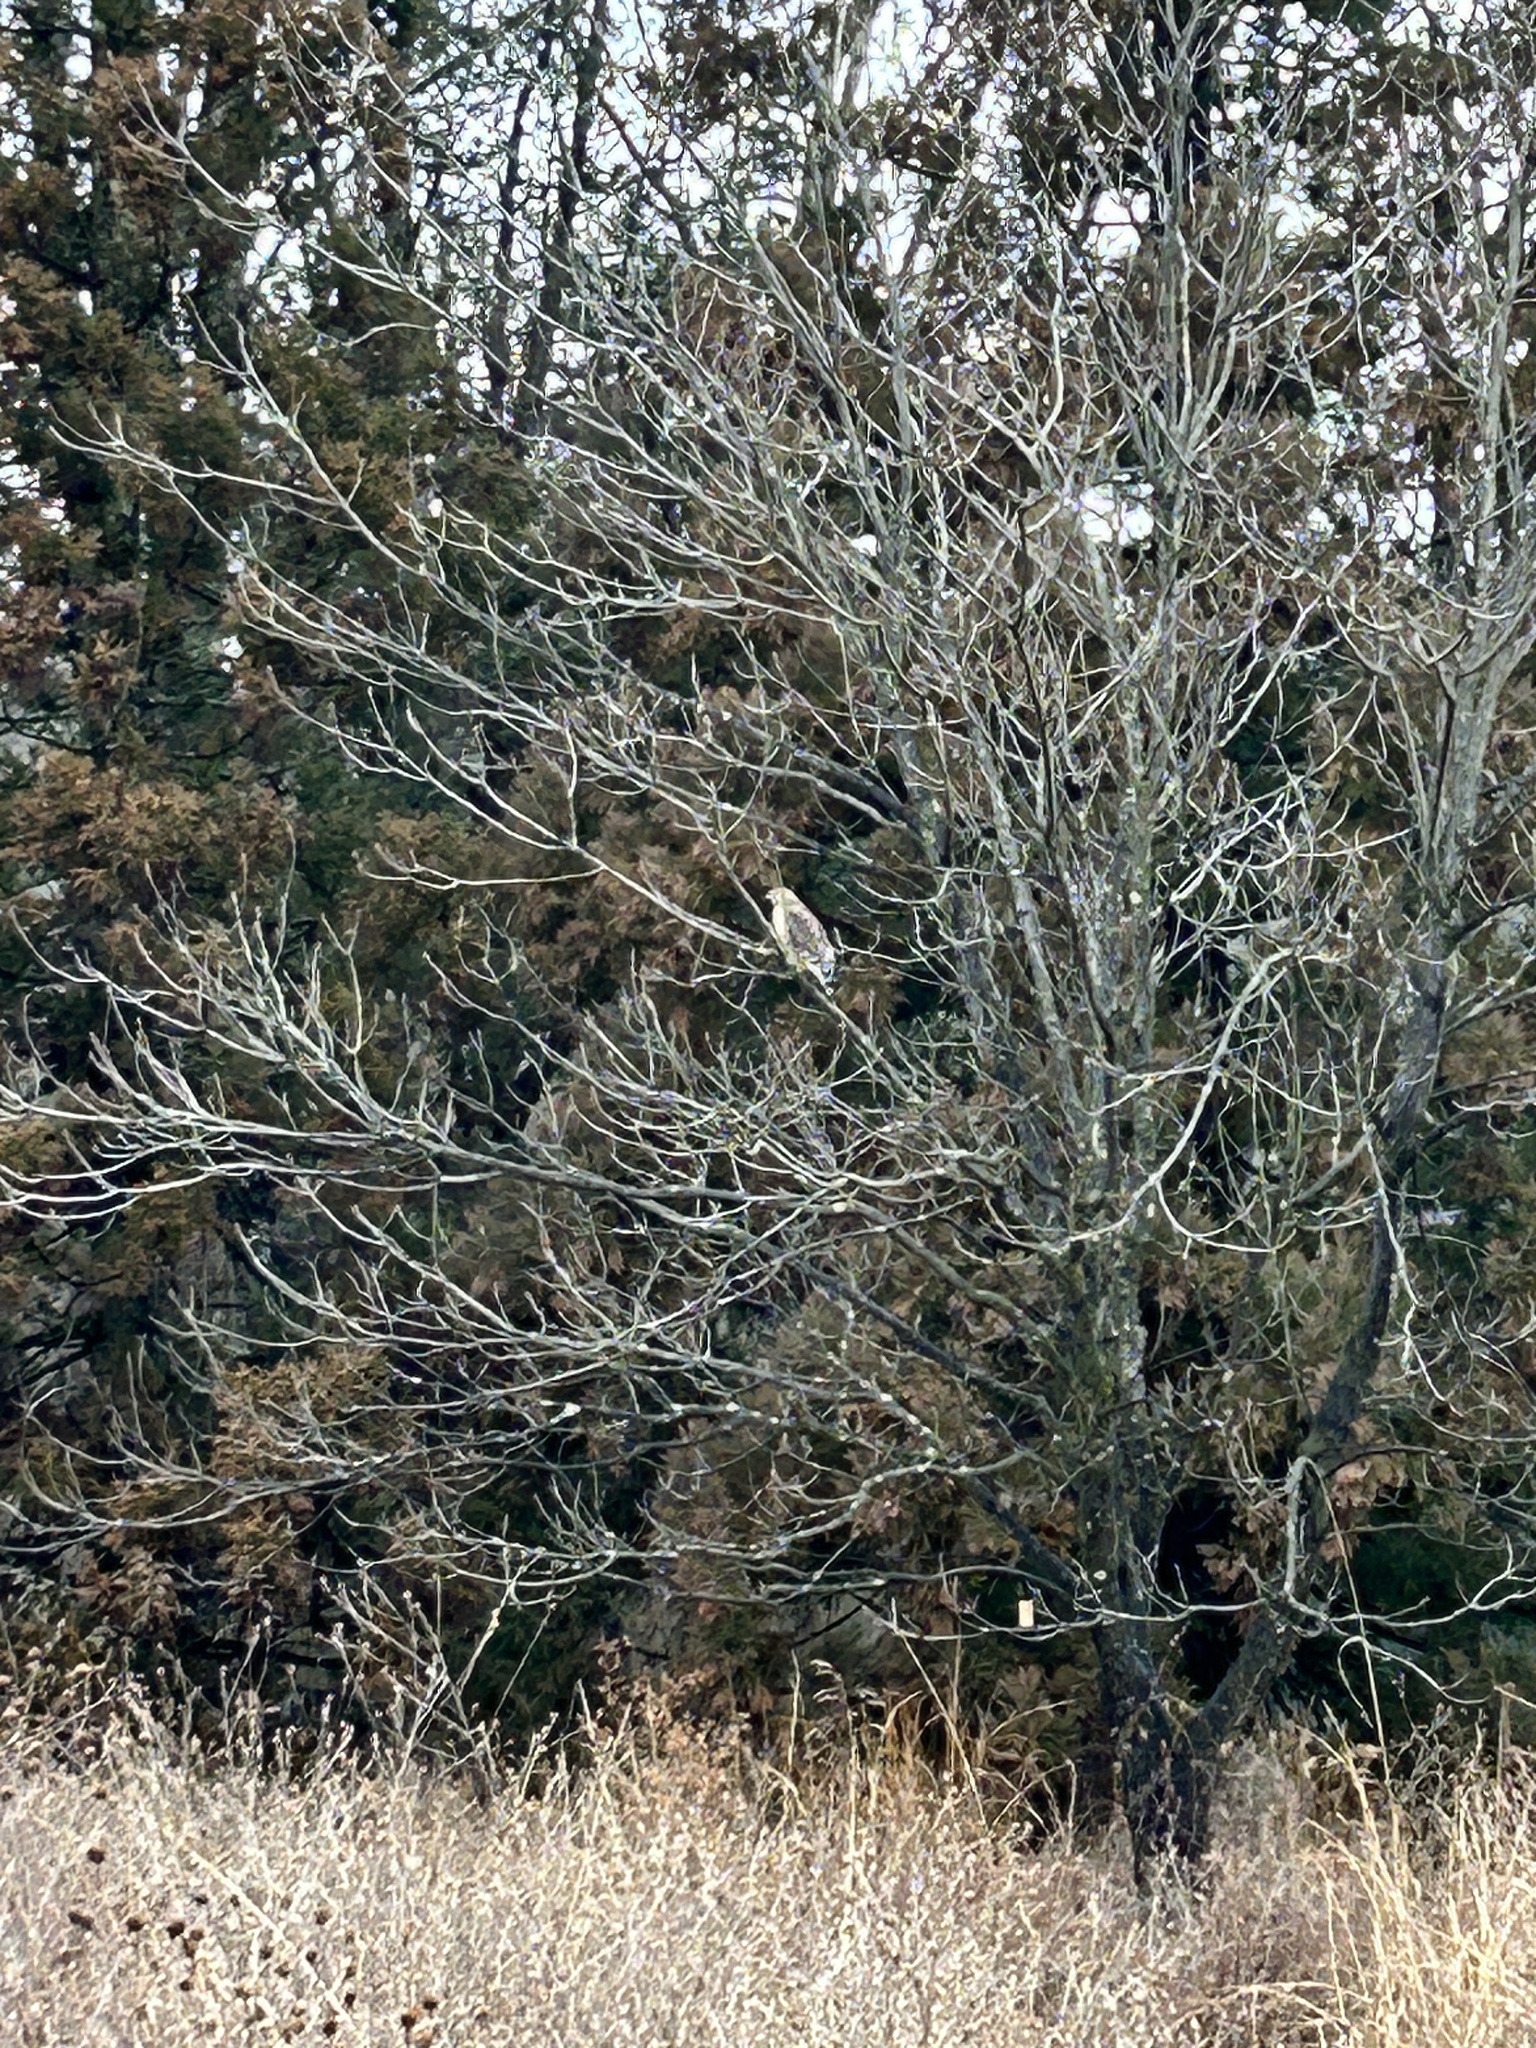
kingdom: Animalia
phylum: Chordata
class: Aves
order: Accipitriformes
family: Accipitridae
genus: Buteo
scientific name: Buteo lineatus
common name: Red-shouldered hawk
